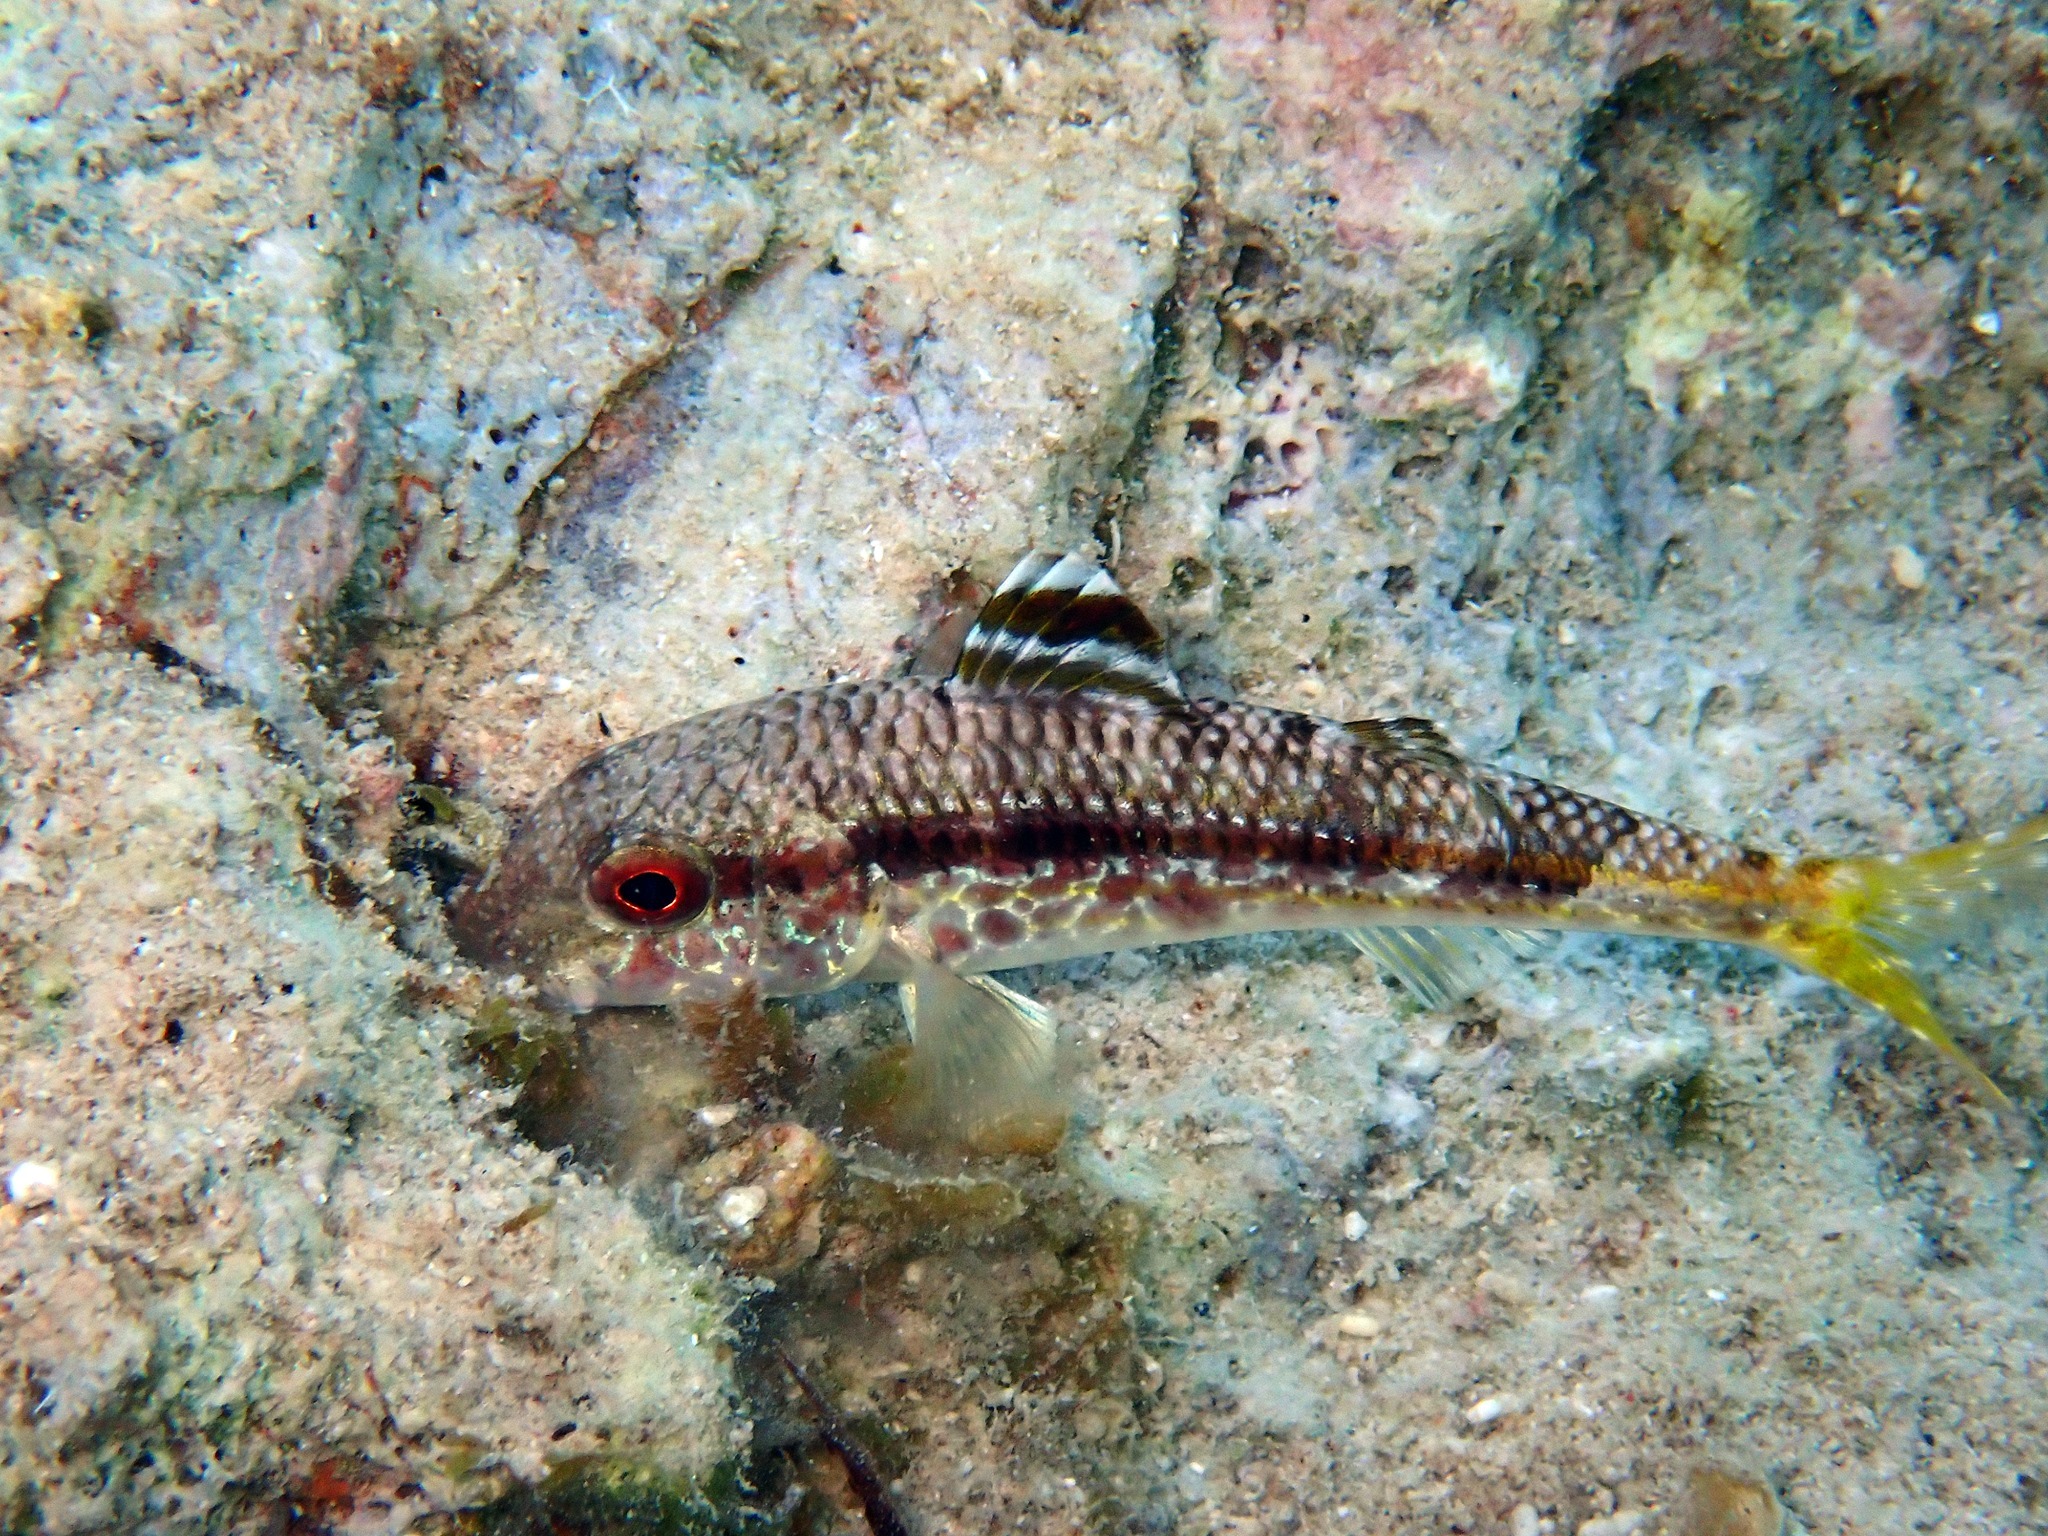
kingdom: Animalia
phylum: Chordata
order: Perciformes
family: Mullidae
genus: Mullus
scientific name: Mullus surmuletus
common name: Red mullet
